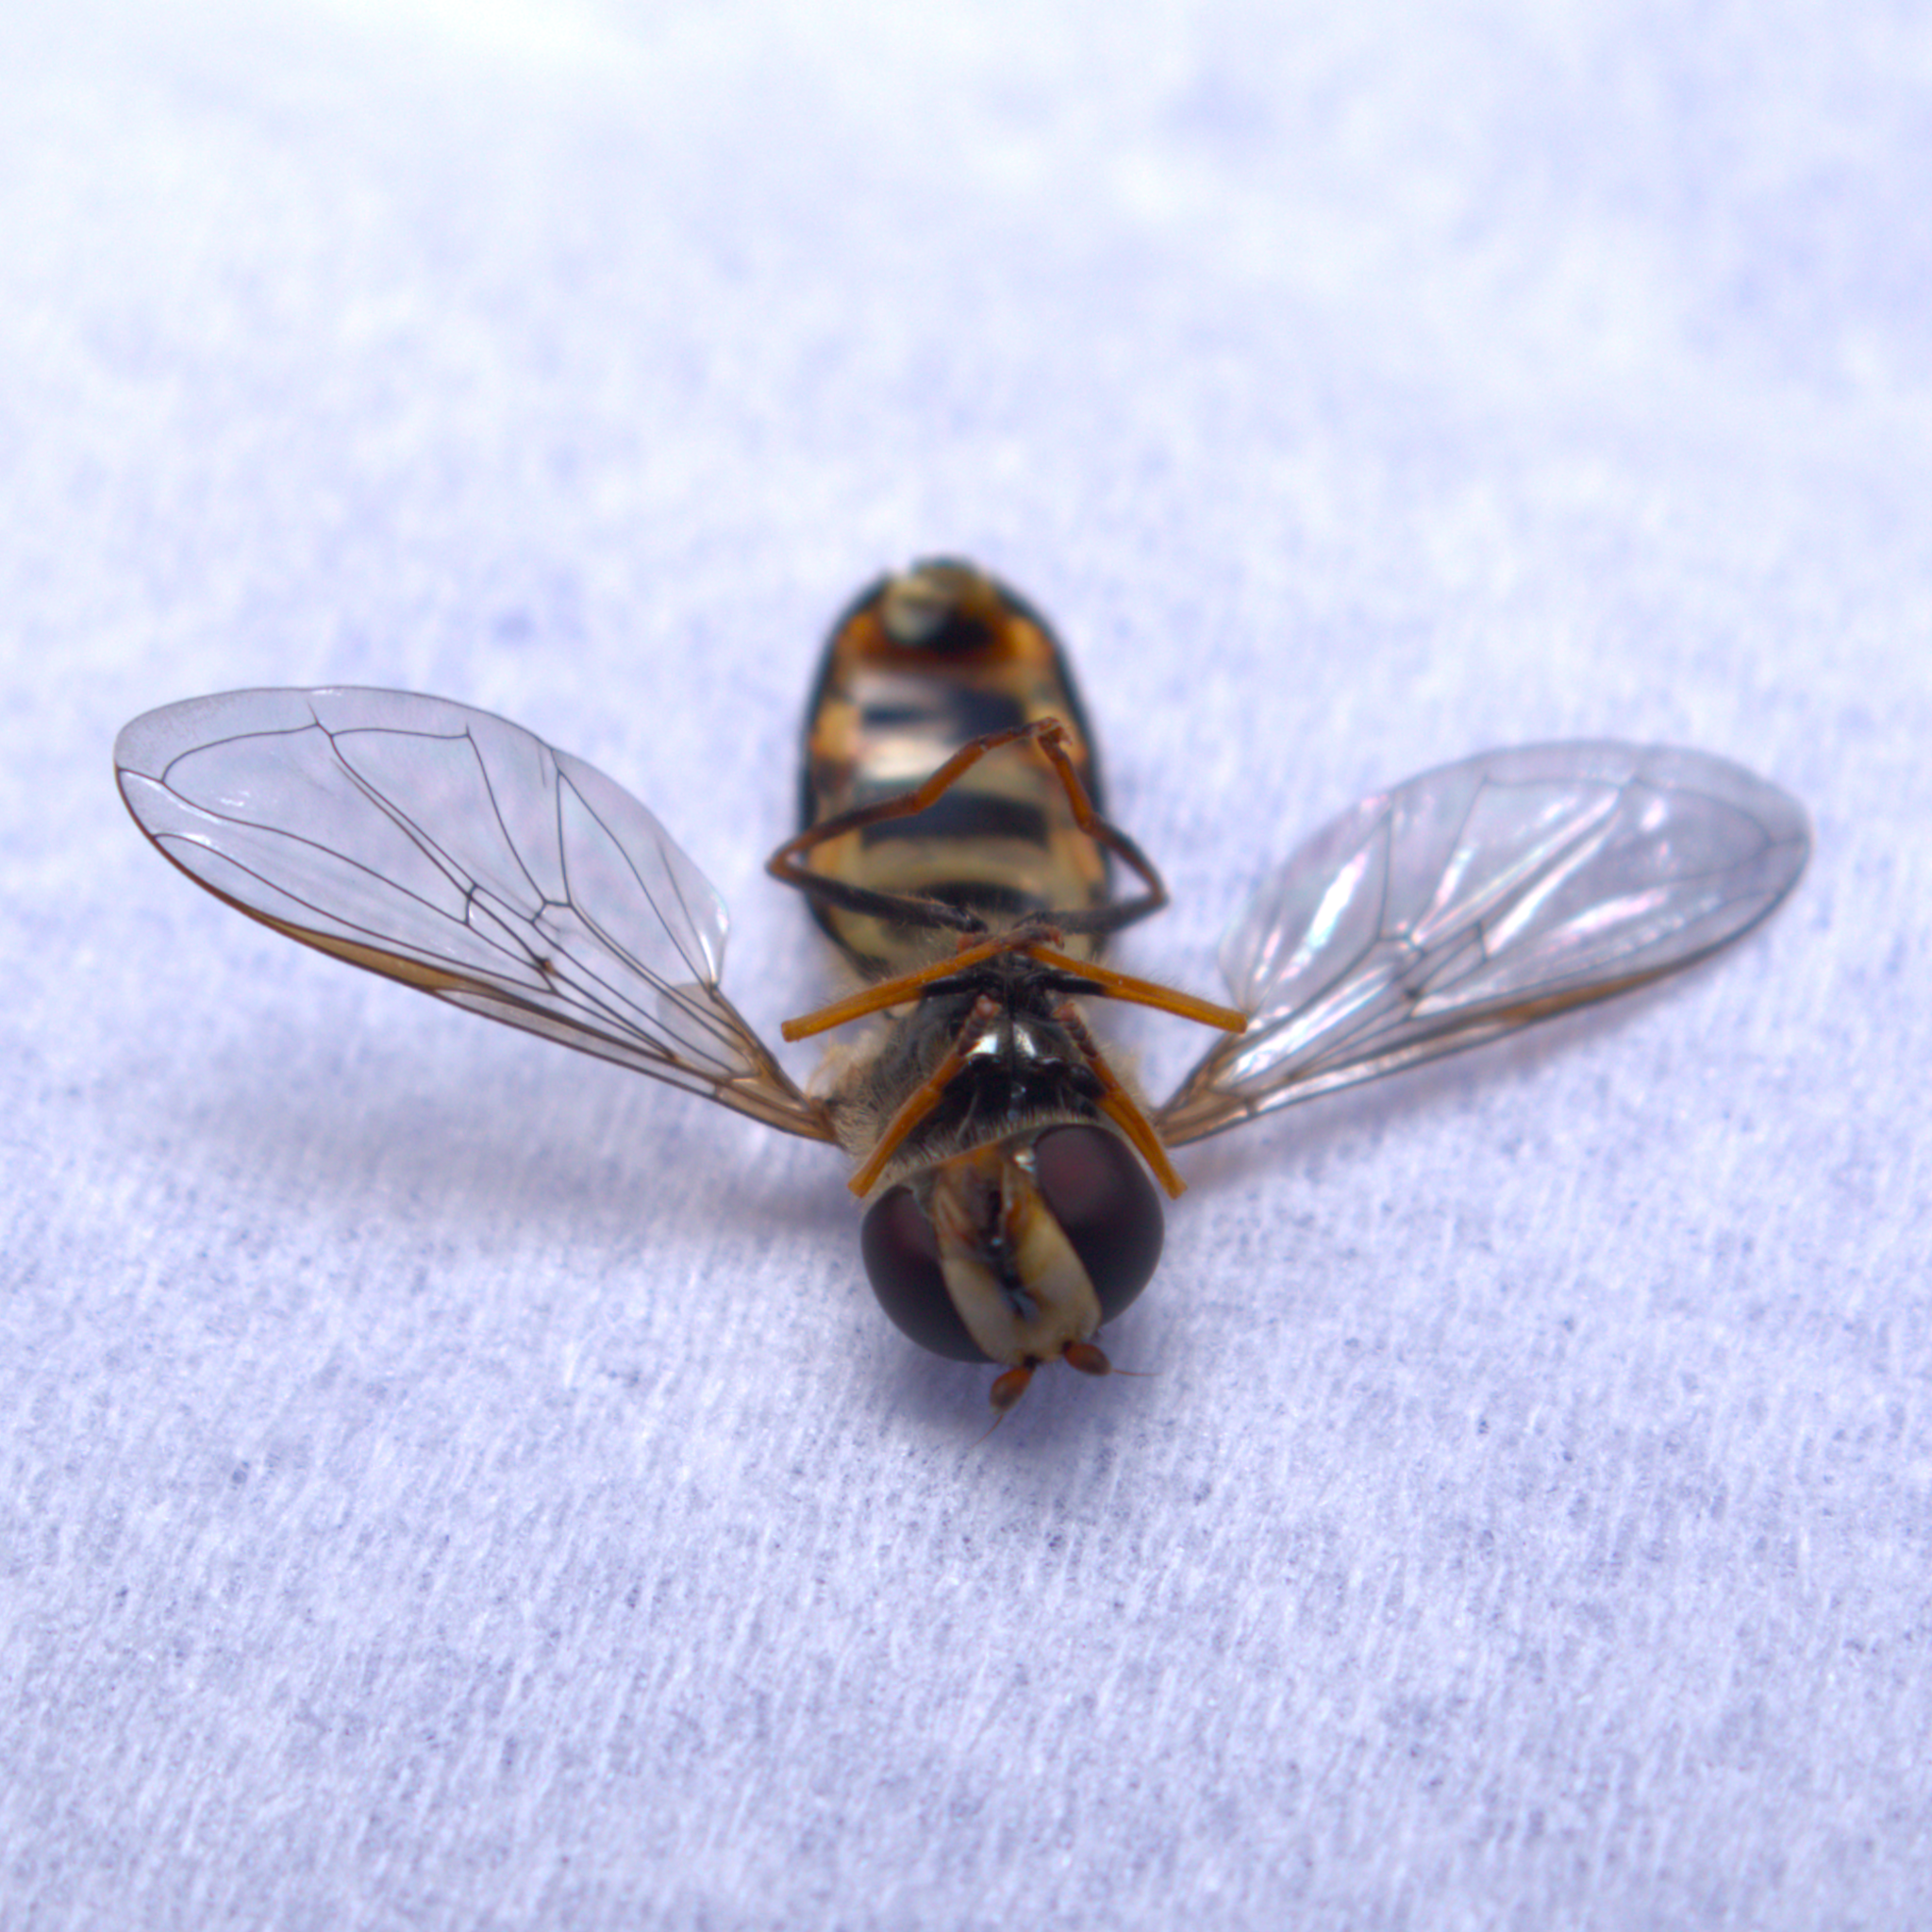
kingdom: Animalia
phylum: Arthropoda
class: Insecta
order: Diptera
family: Syrphidae
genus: Eupeodes
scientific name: Eupeodes
